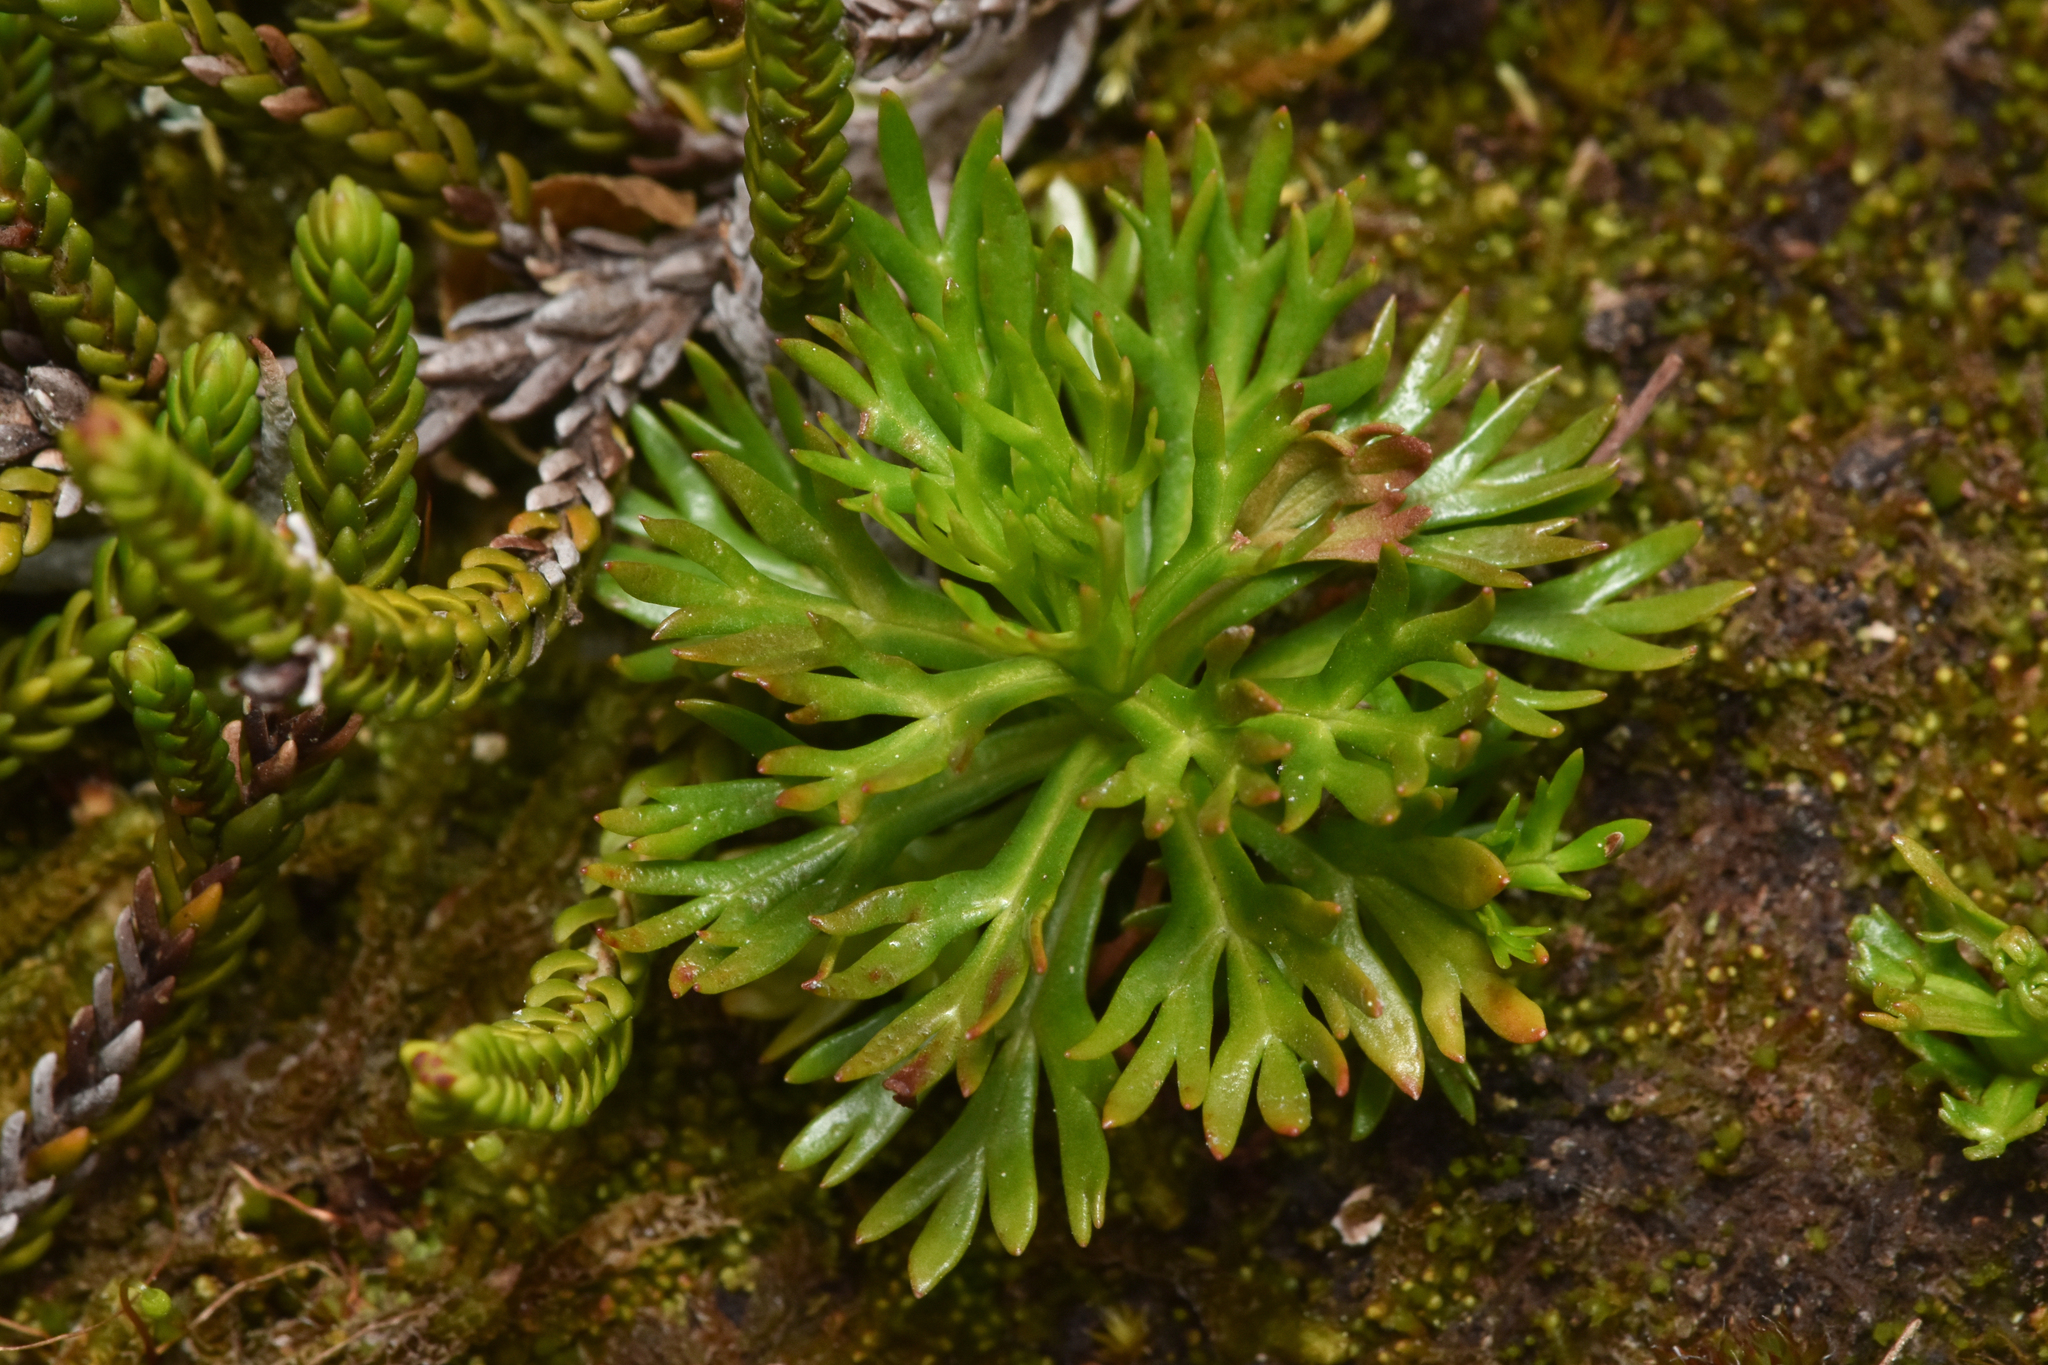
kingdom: Plantae
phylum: Tracheophyta
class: Magnoliopsida
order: Rosales
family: Rosaceae
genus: Luetkea
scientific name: Luetkea pectinata
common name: Partridgefoot
